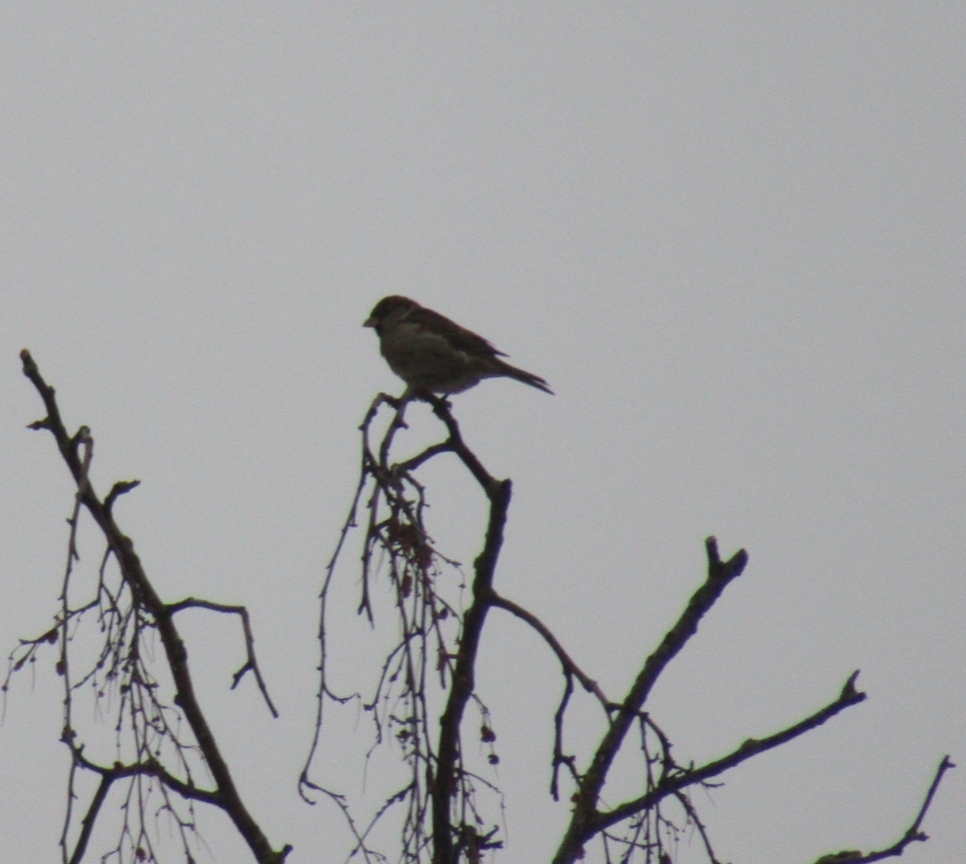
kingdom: Animalia
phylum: Chordata
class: Aves
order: Passeriformes
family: Passeridae
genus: Passer
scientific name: Passer domesticus
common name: House sparrow
